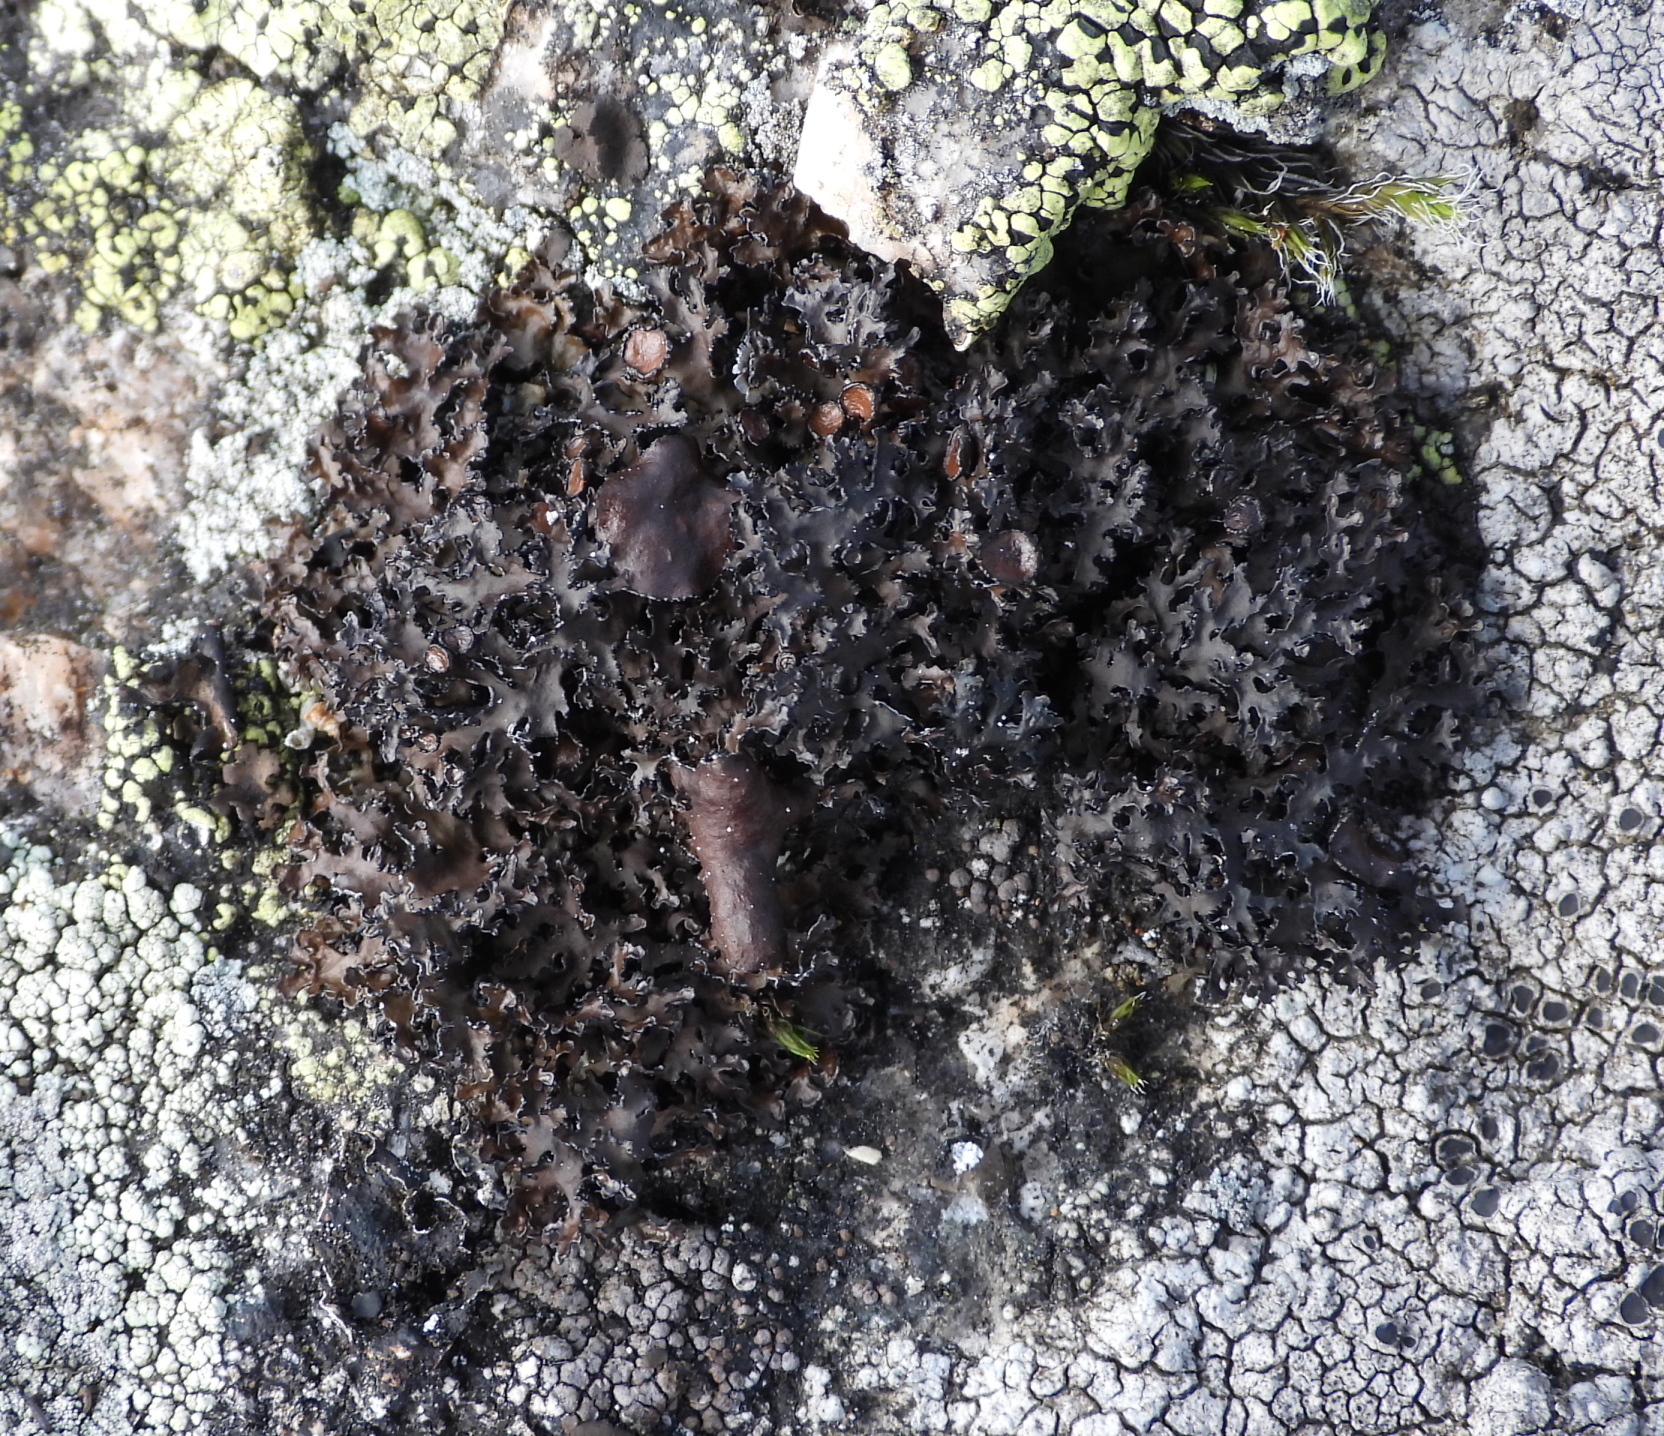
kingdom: Fungi
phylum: Ascomycota
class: Lecanoromycetes
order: Lecanorales
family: Parmeliaceae
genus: Melanelia
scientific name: Melanelia commixta
